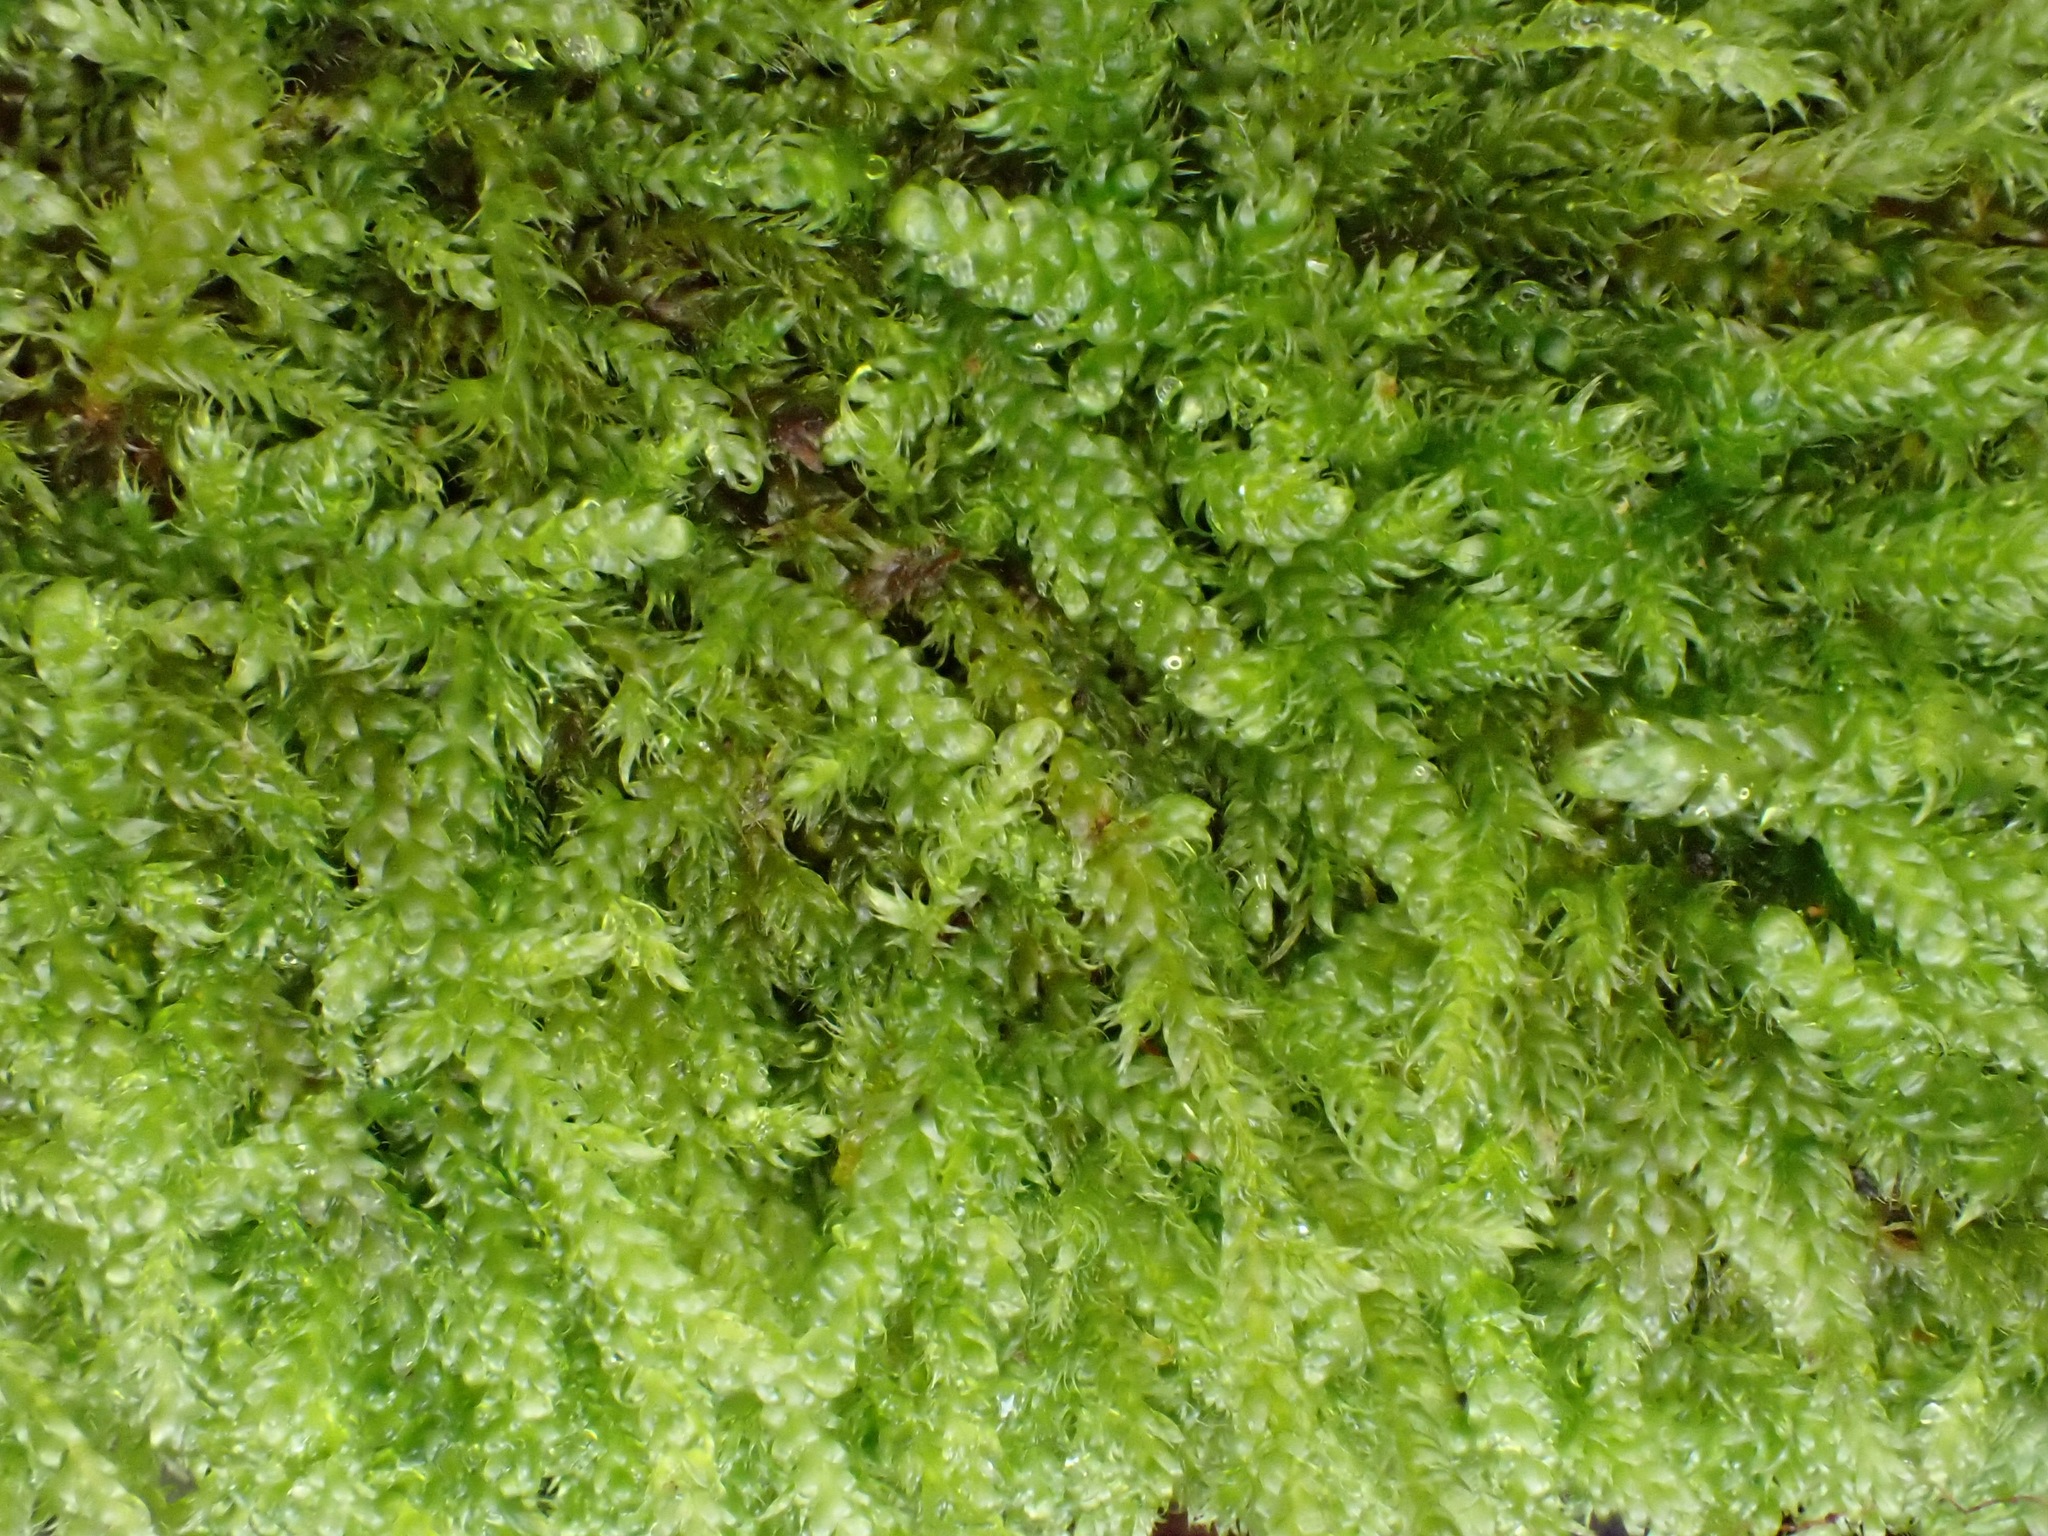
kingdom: Plantae
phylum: Bryophyta
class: Bryopsida
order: Hypnales
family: Hypnaceae
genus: Hypnum
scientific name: Hypnum cupressiforme
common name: Cypress-leaved plait-moss
